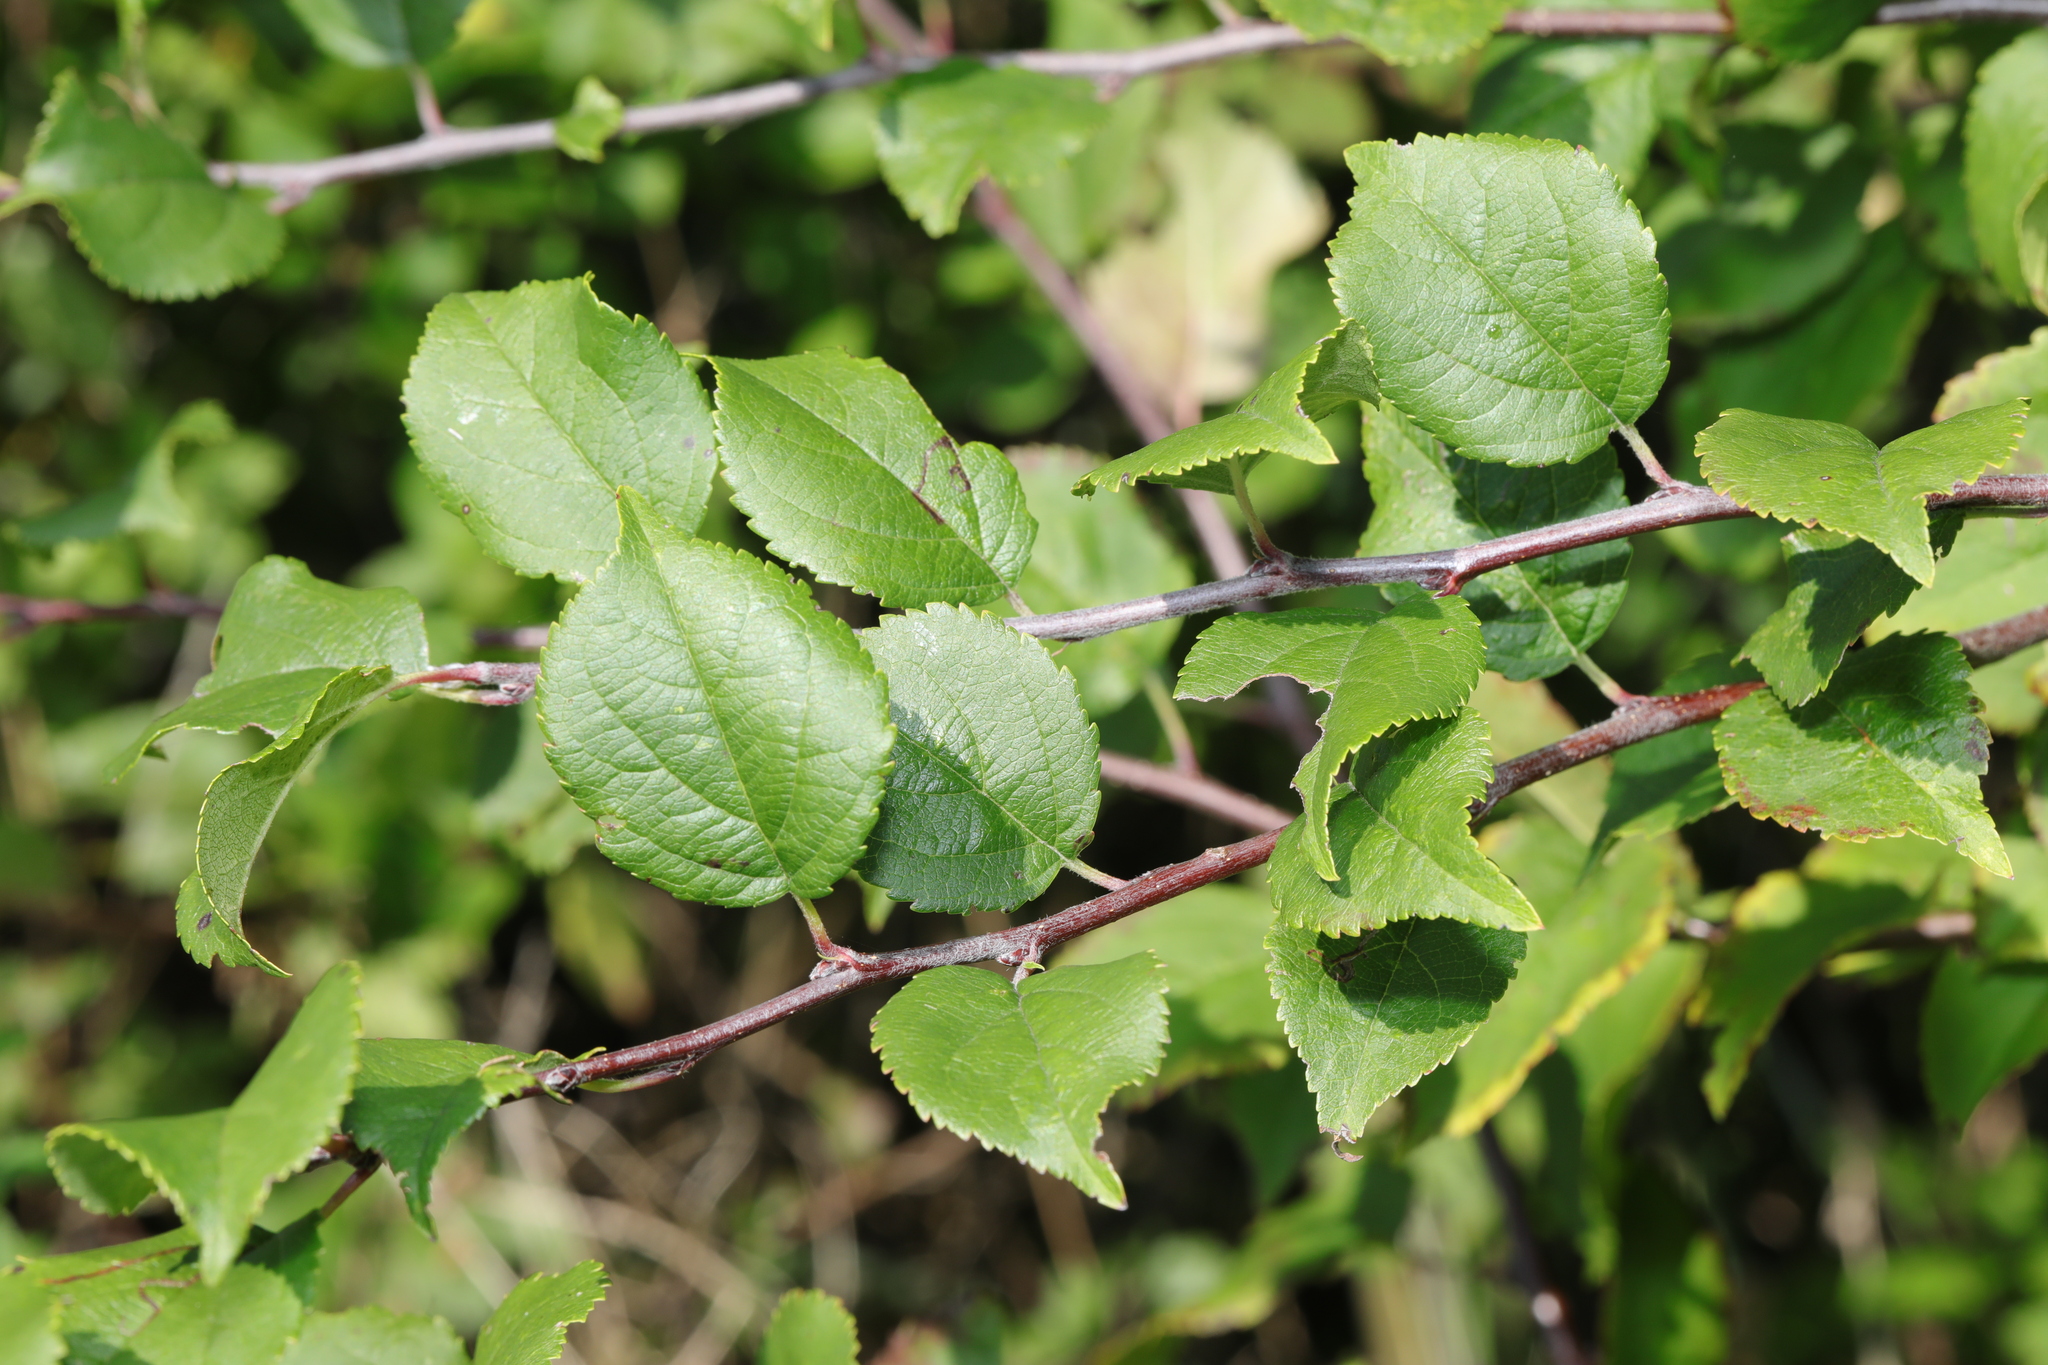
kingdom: Plantae
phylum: Tracheophyta
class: Magnoliopsida
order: Rosales
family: Rosaceae
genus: Prunus
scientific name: Prunus spinosa
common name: Blackthorn
